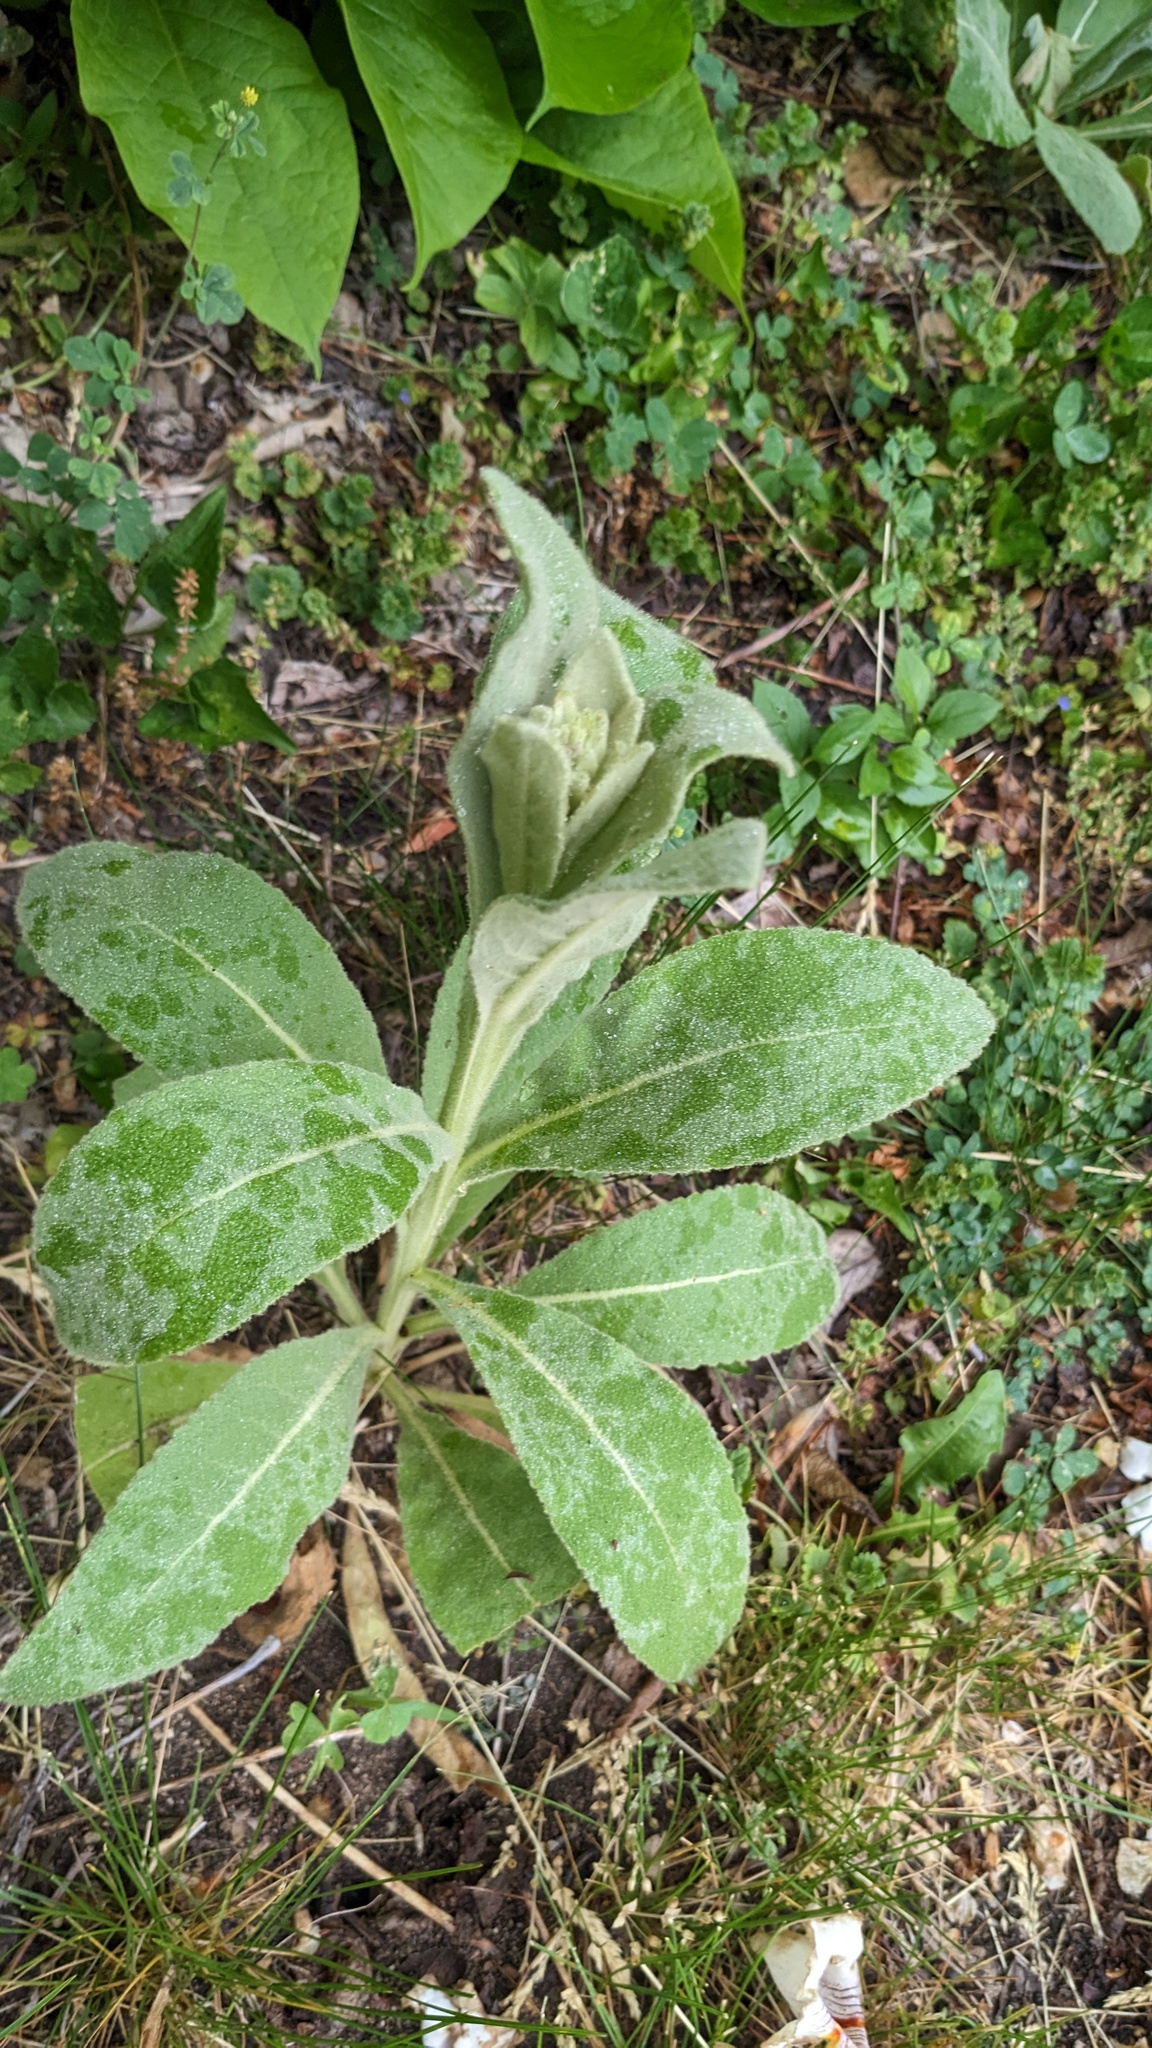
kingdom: Plantae
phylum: Tracheophyta
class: Magnoliopsida
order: Lamiales
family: Scrophulariaceae
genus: Verbascum
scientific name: Verbascum thapsus
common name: Common mullein
